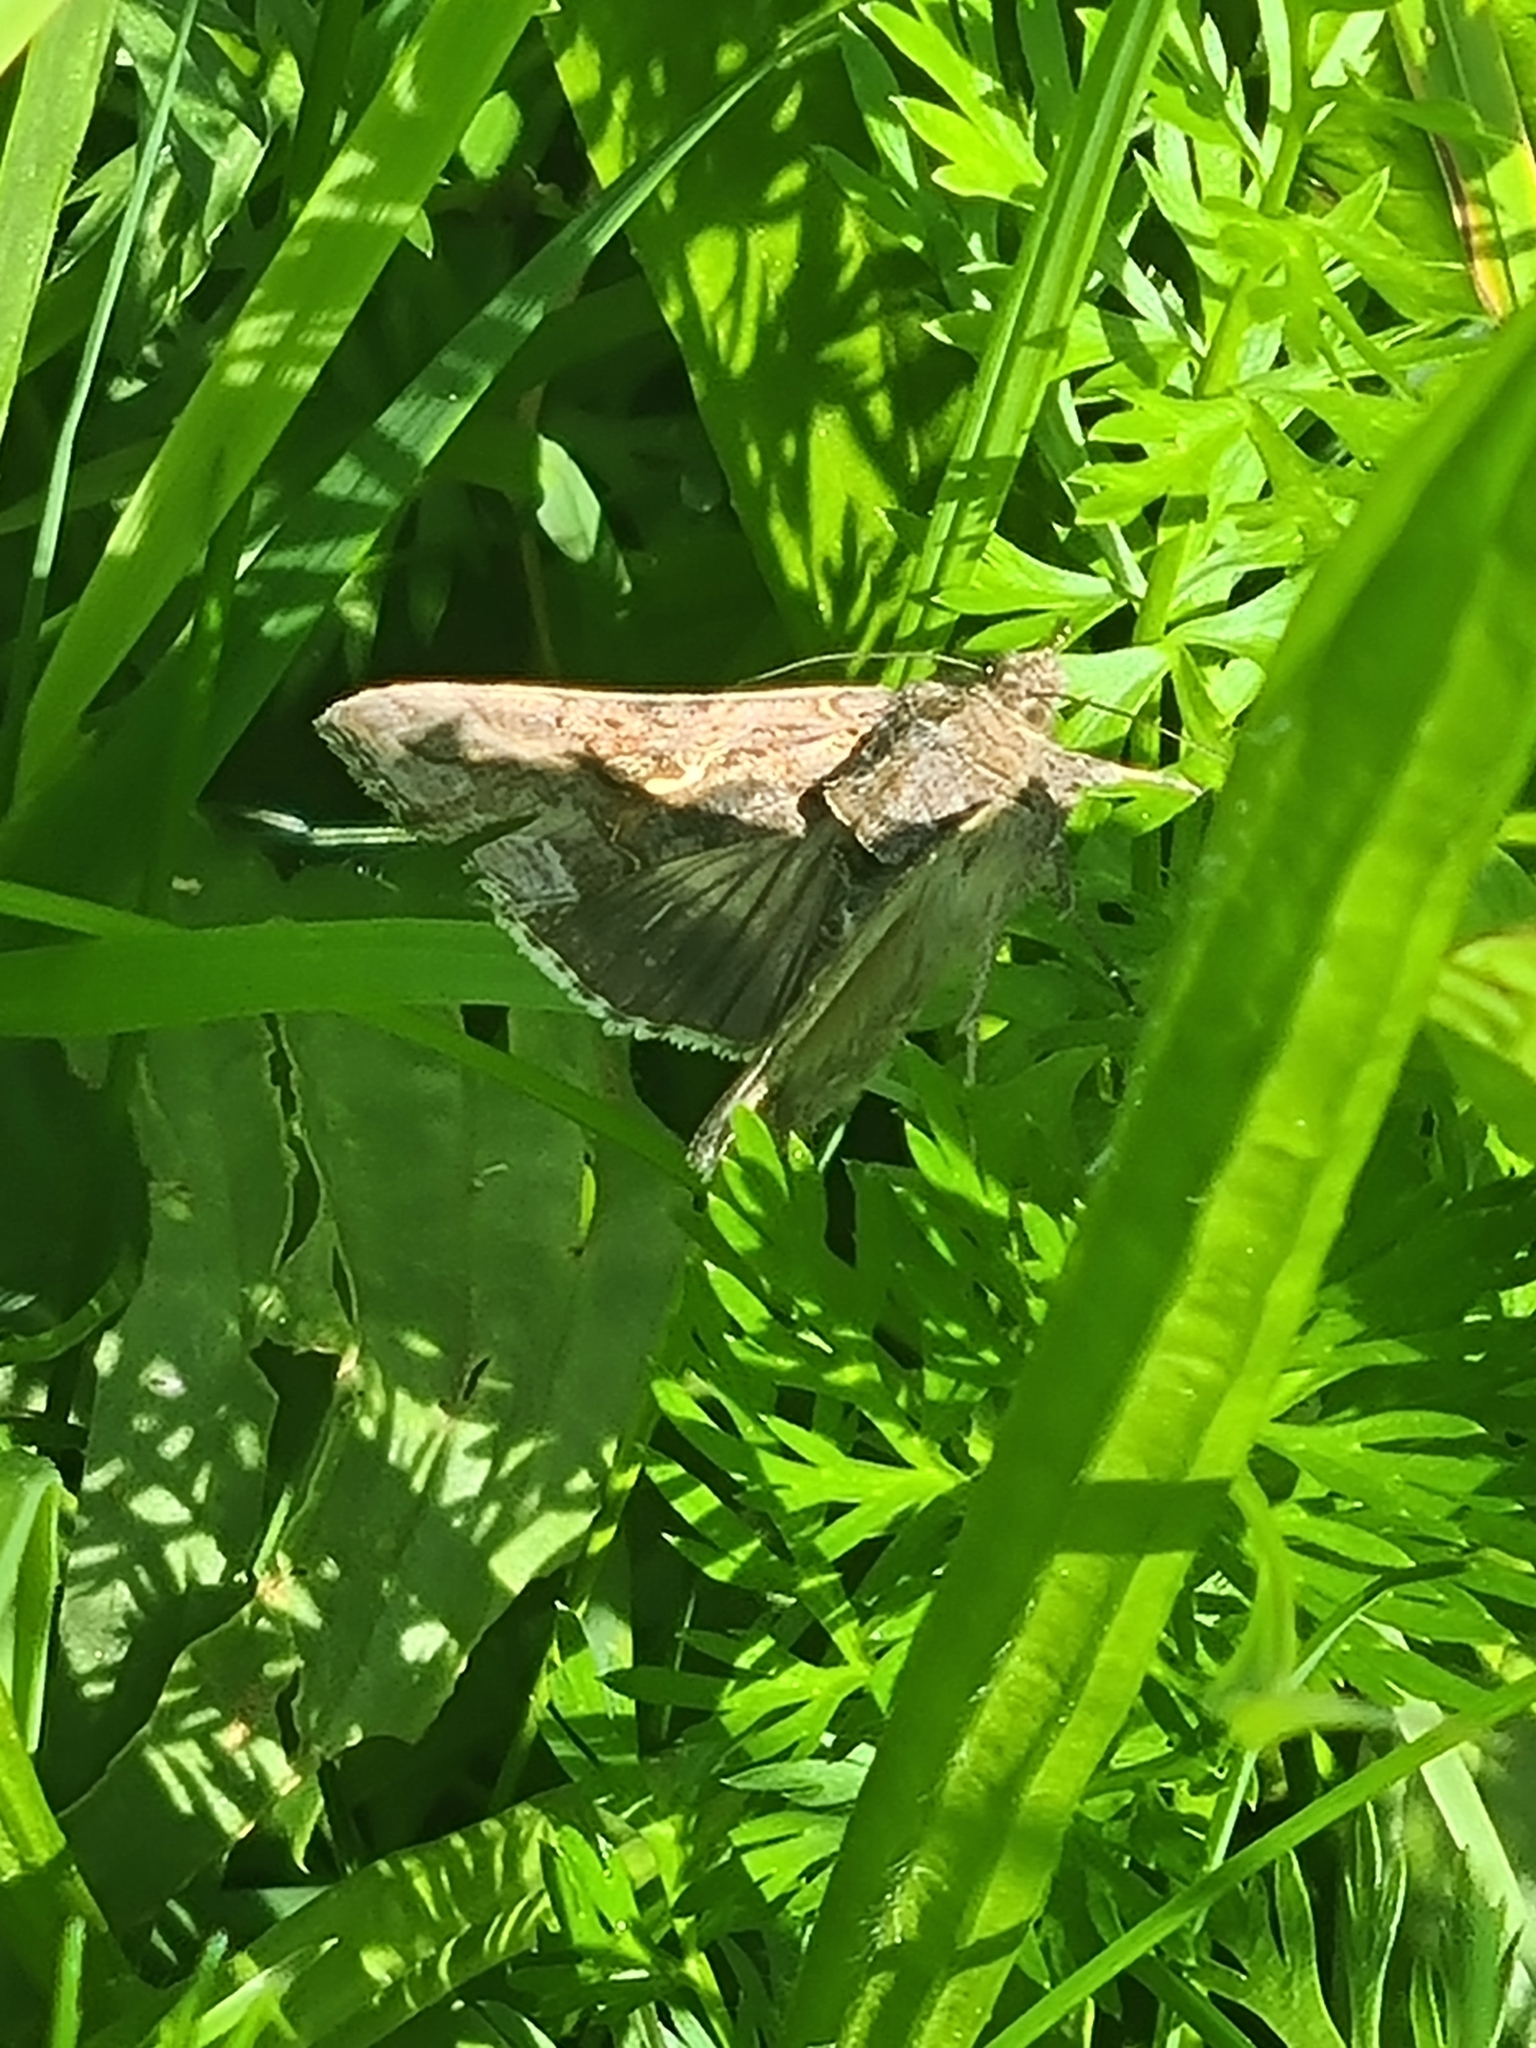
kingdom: Animalia
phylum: Arthropoda
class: Insecta
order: Lepidoptera
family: Noctuidae
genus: Autographa
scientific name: Autographa gamma
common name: Silver y
